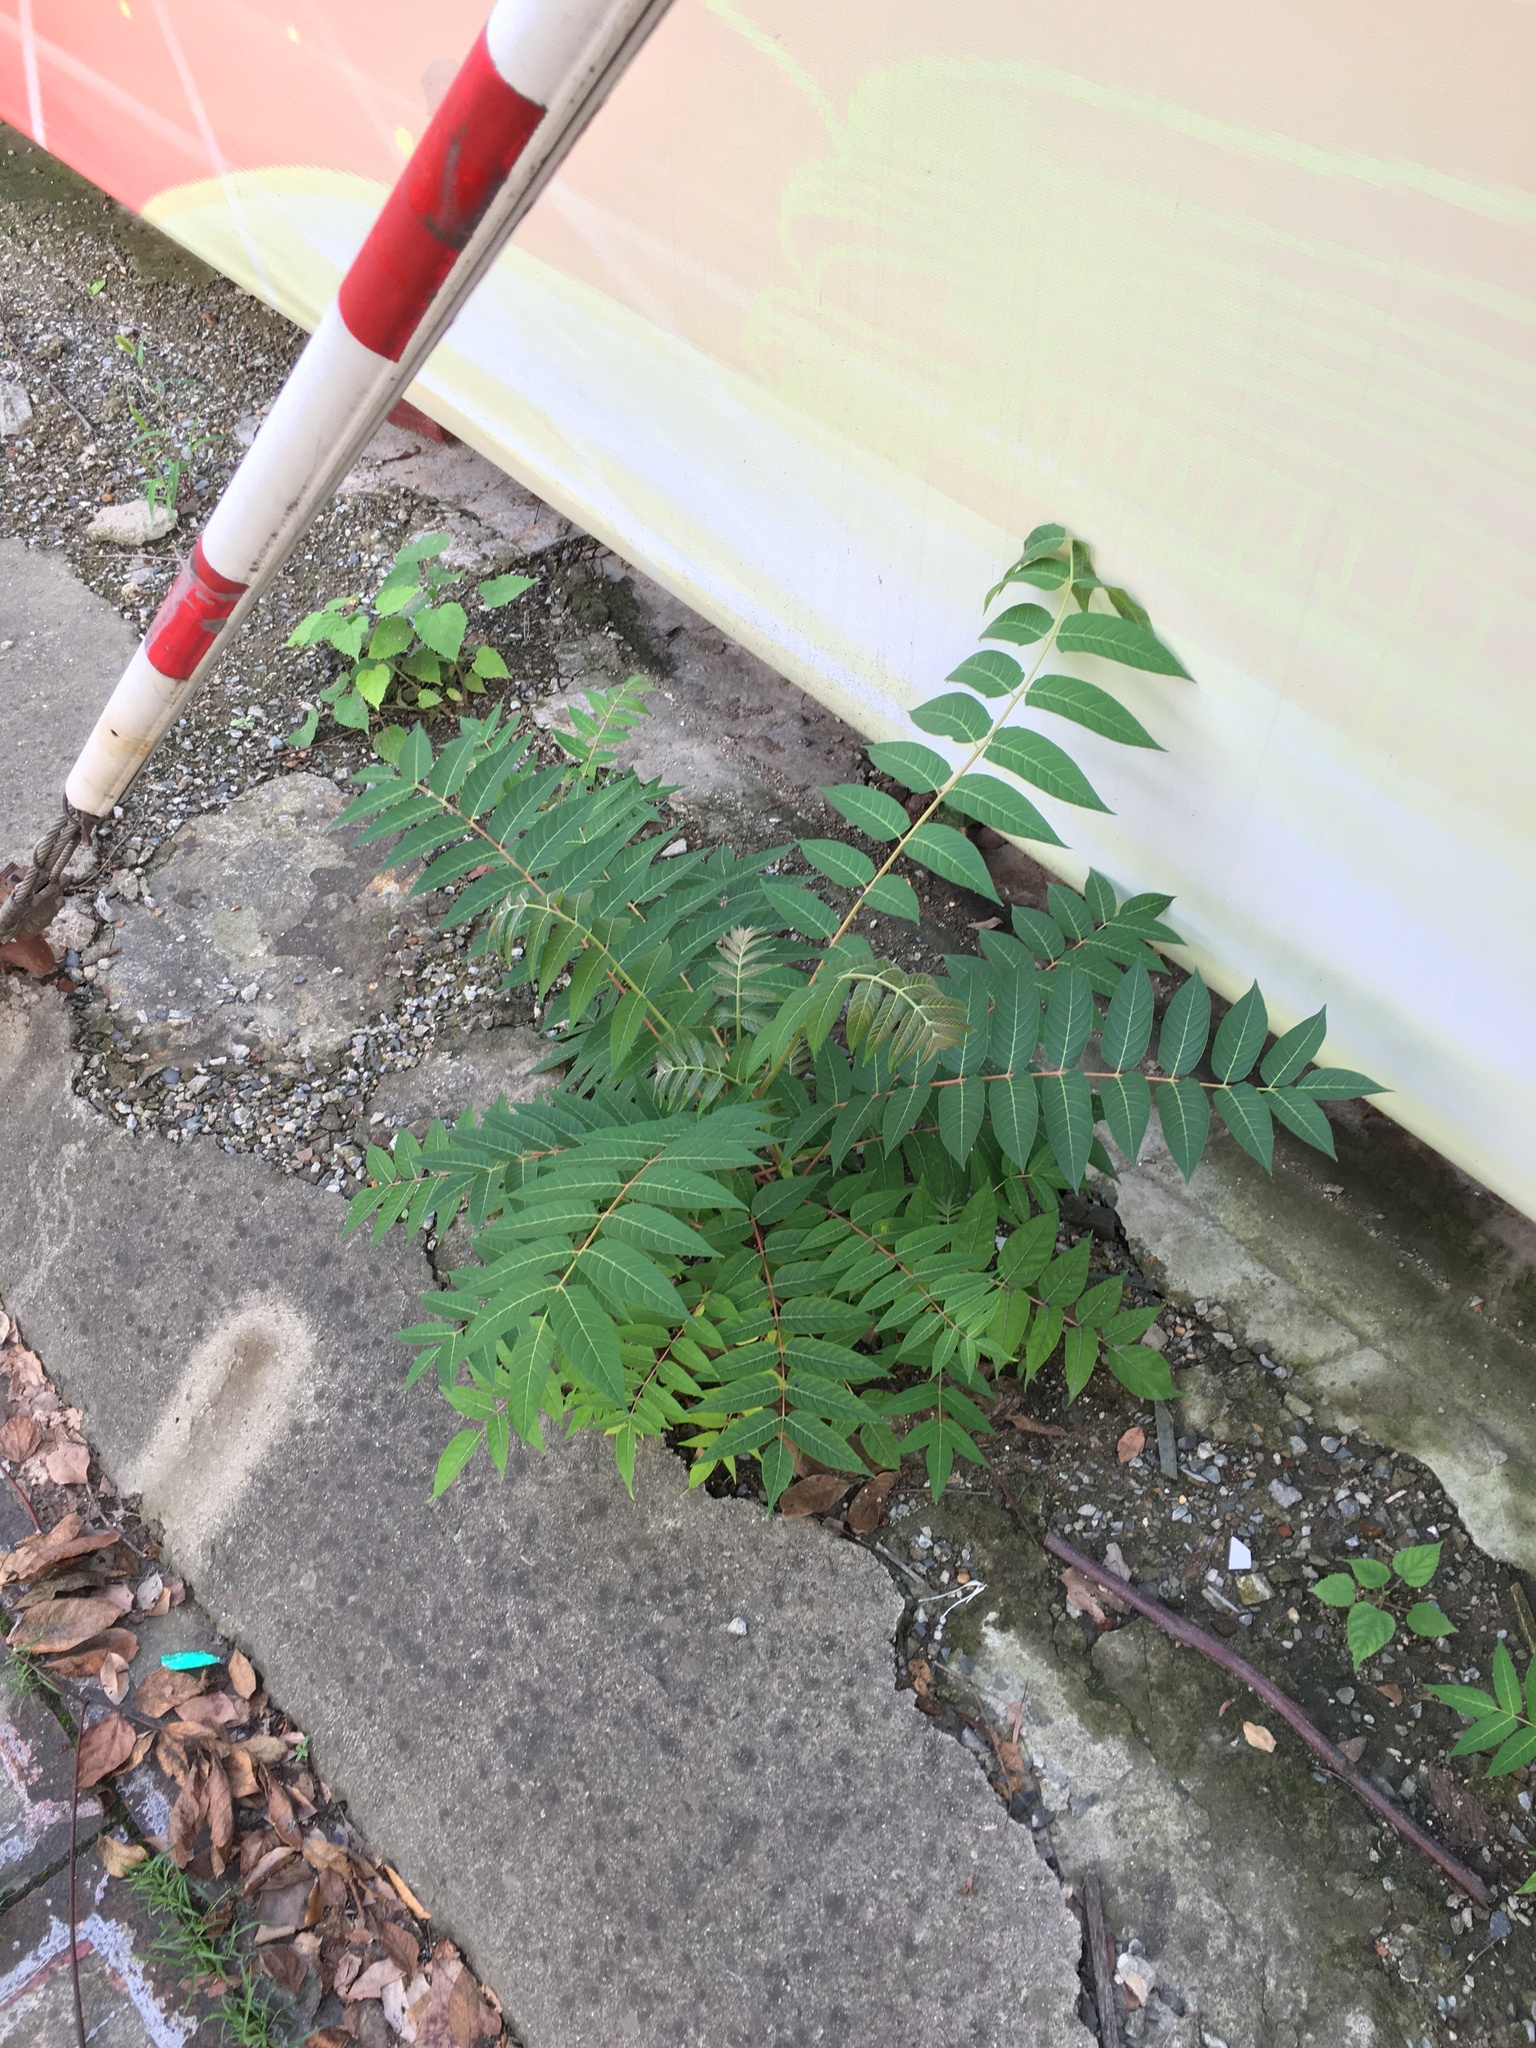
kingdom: Plantae
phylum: Tracheophyta
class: Magnoliopsida
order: Sapindales
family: Simaroubaceae
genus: Ailanthus
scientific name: Ailanthus altissima
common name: Tree-of-heaven
